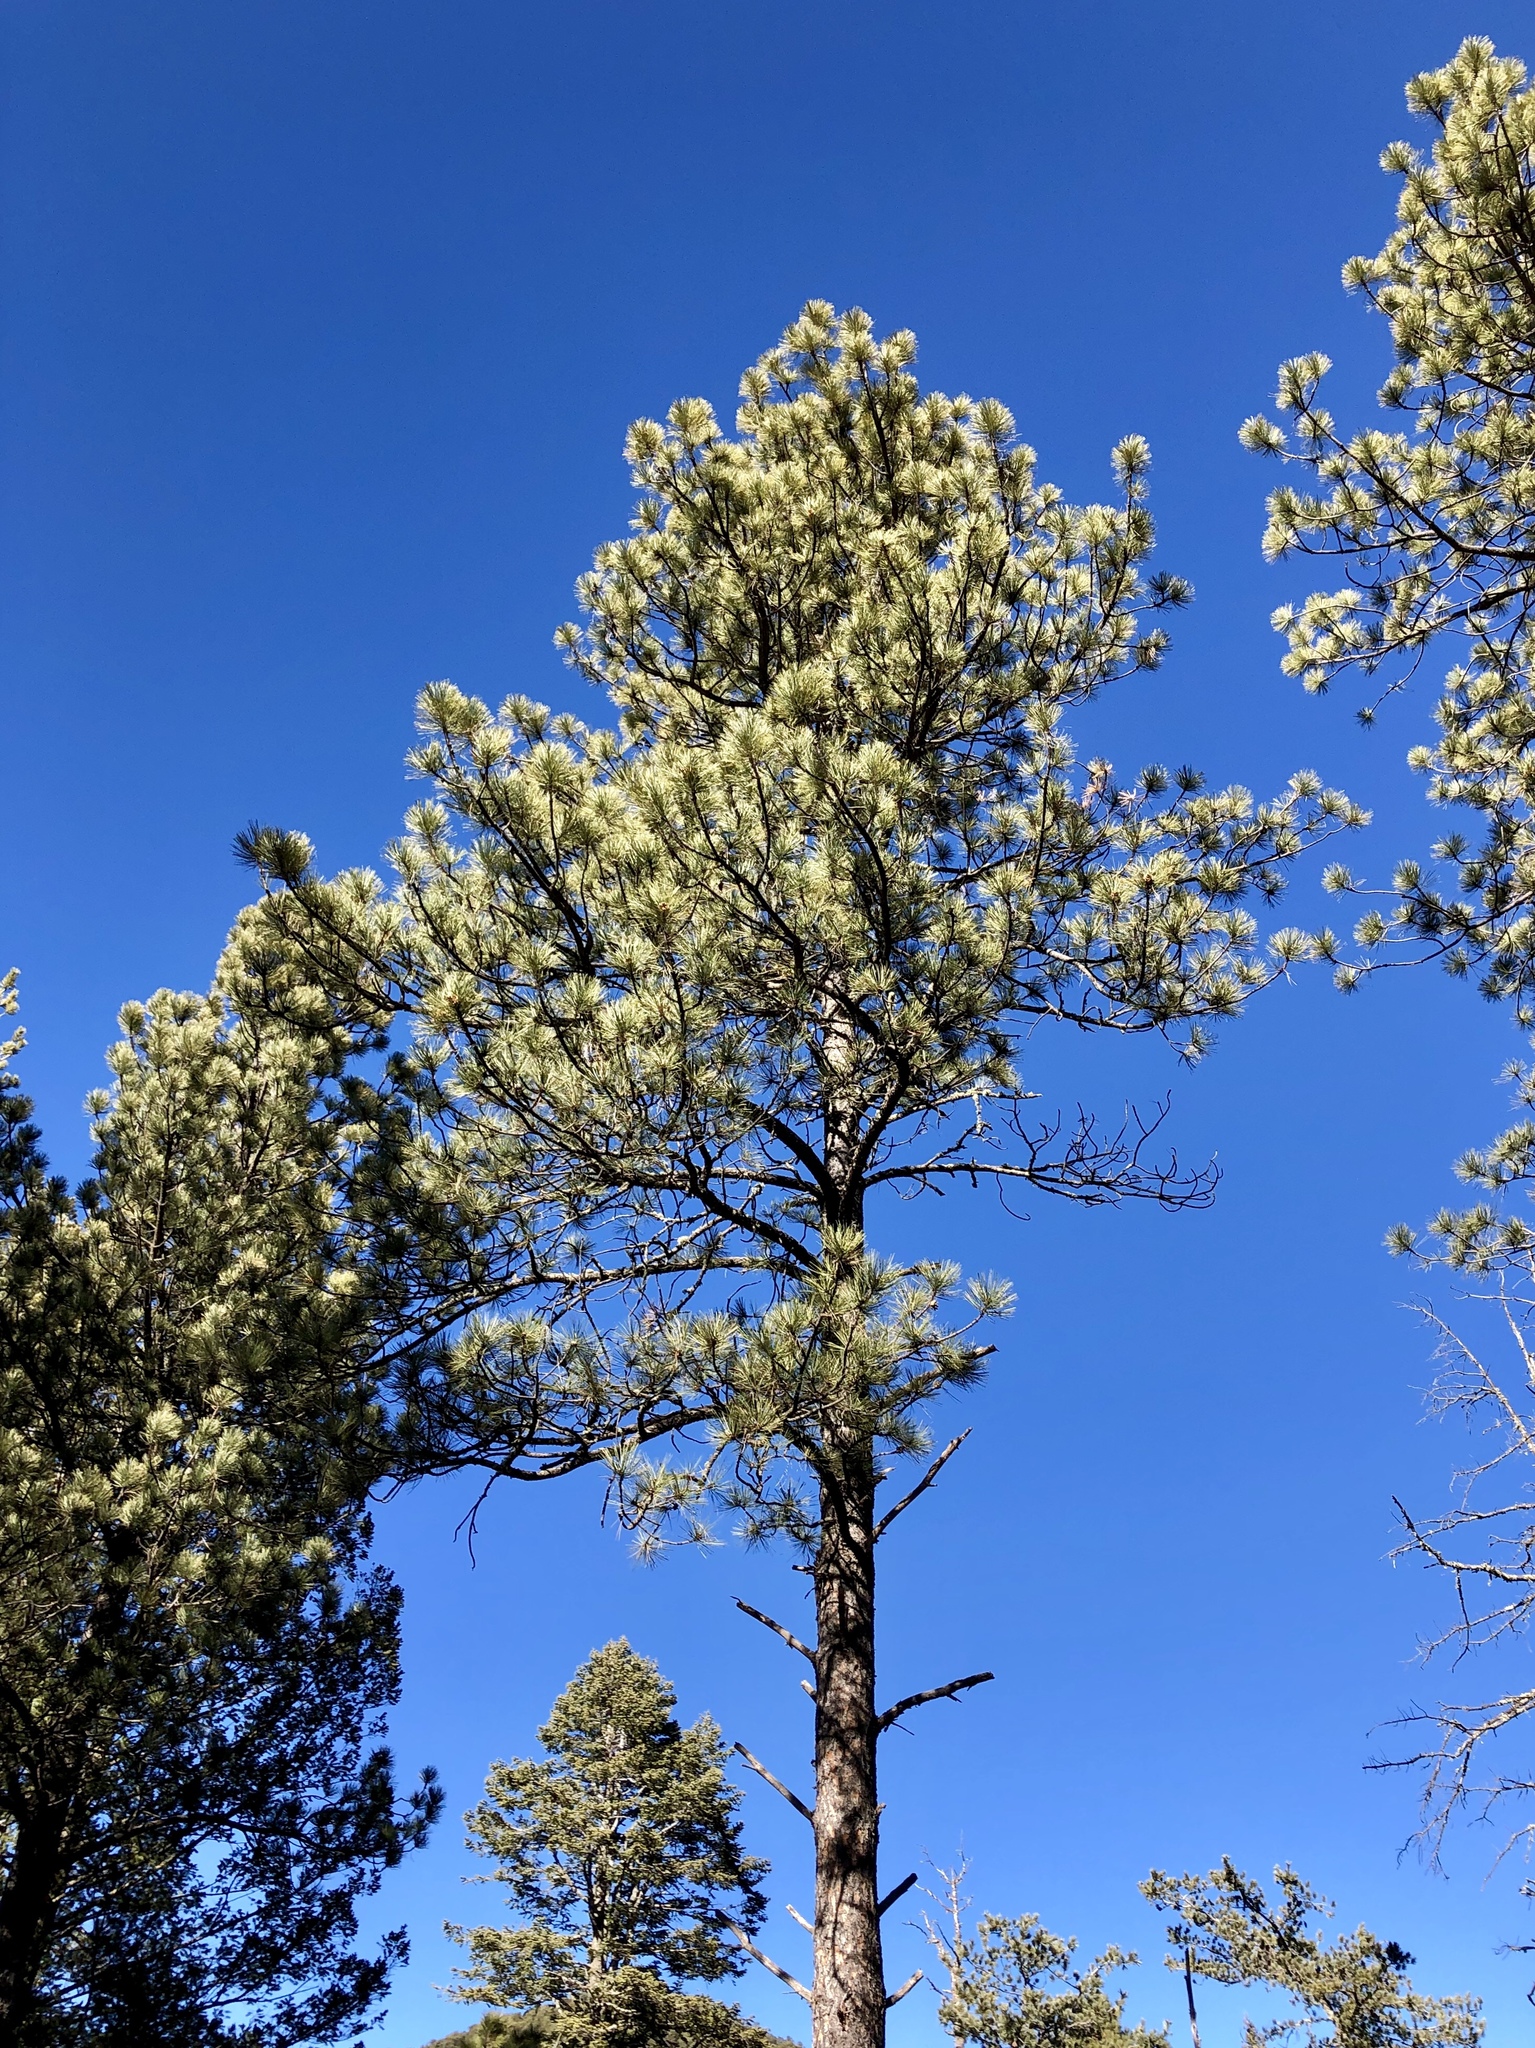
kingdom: Plantae
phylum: Tracheophyta
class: Pinopsida
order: Pinales
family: Pinaceae
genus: Pinus
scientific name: Pinus ponderosa
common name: Western yellow-pine
